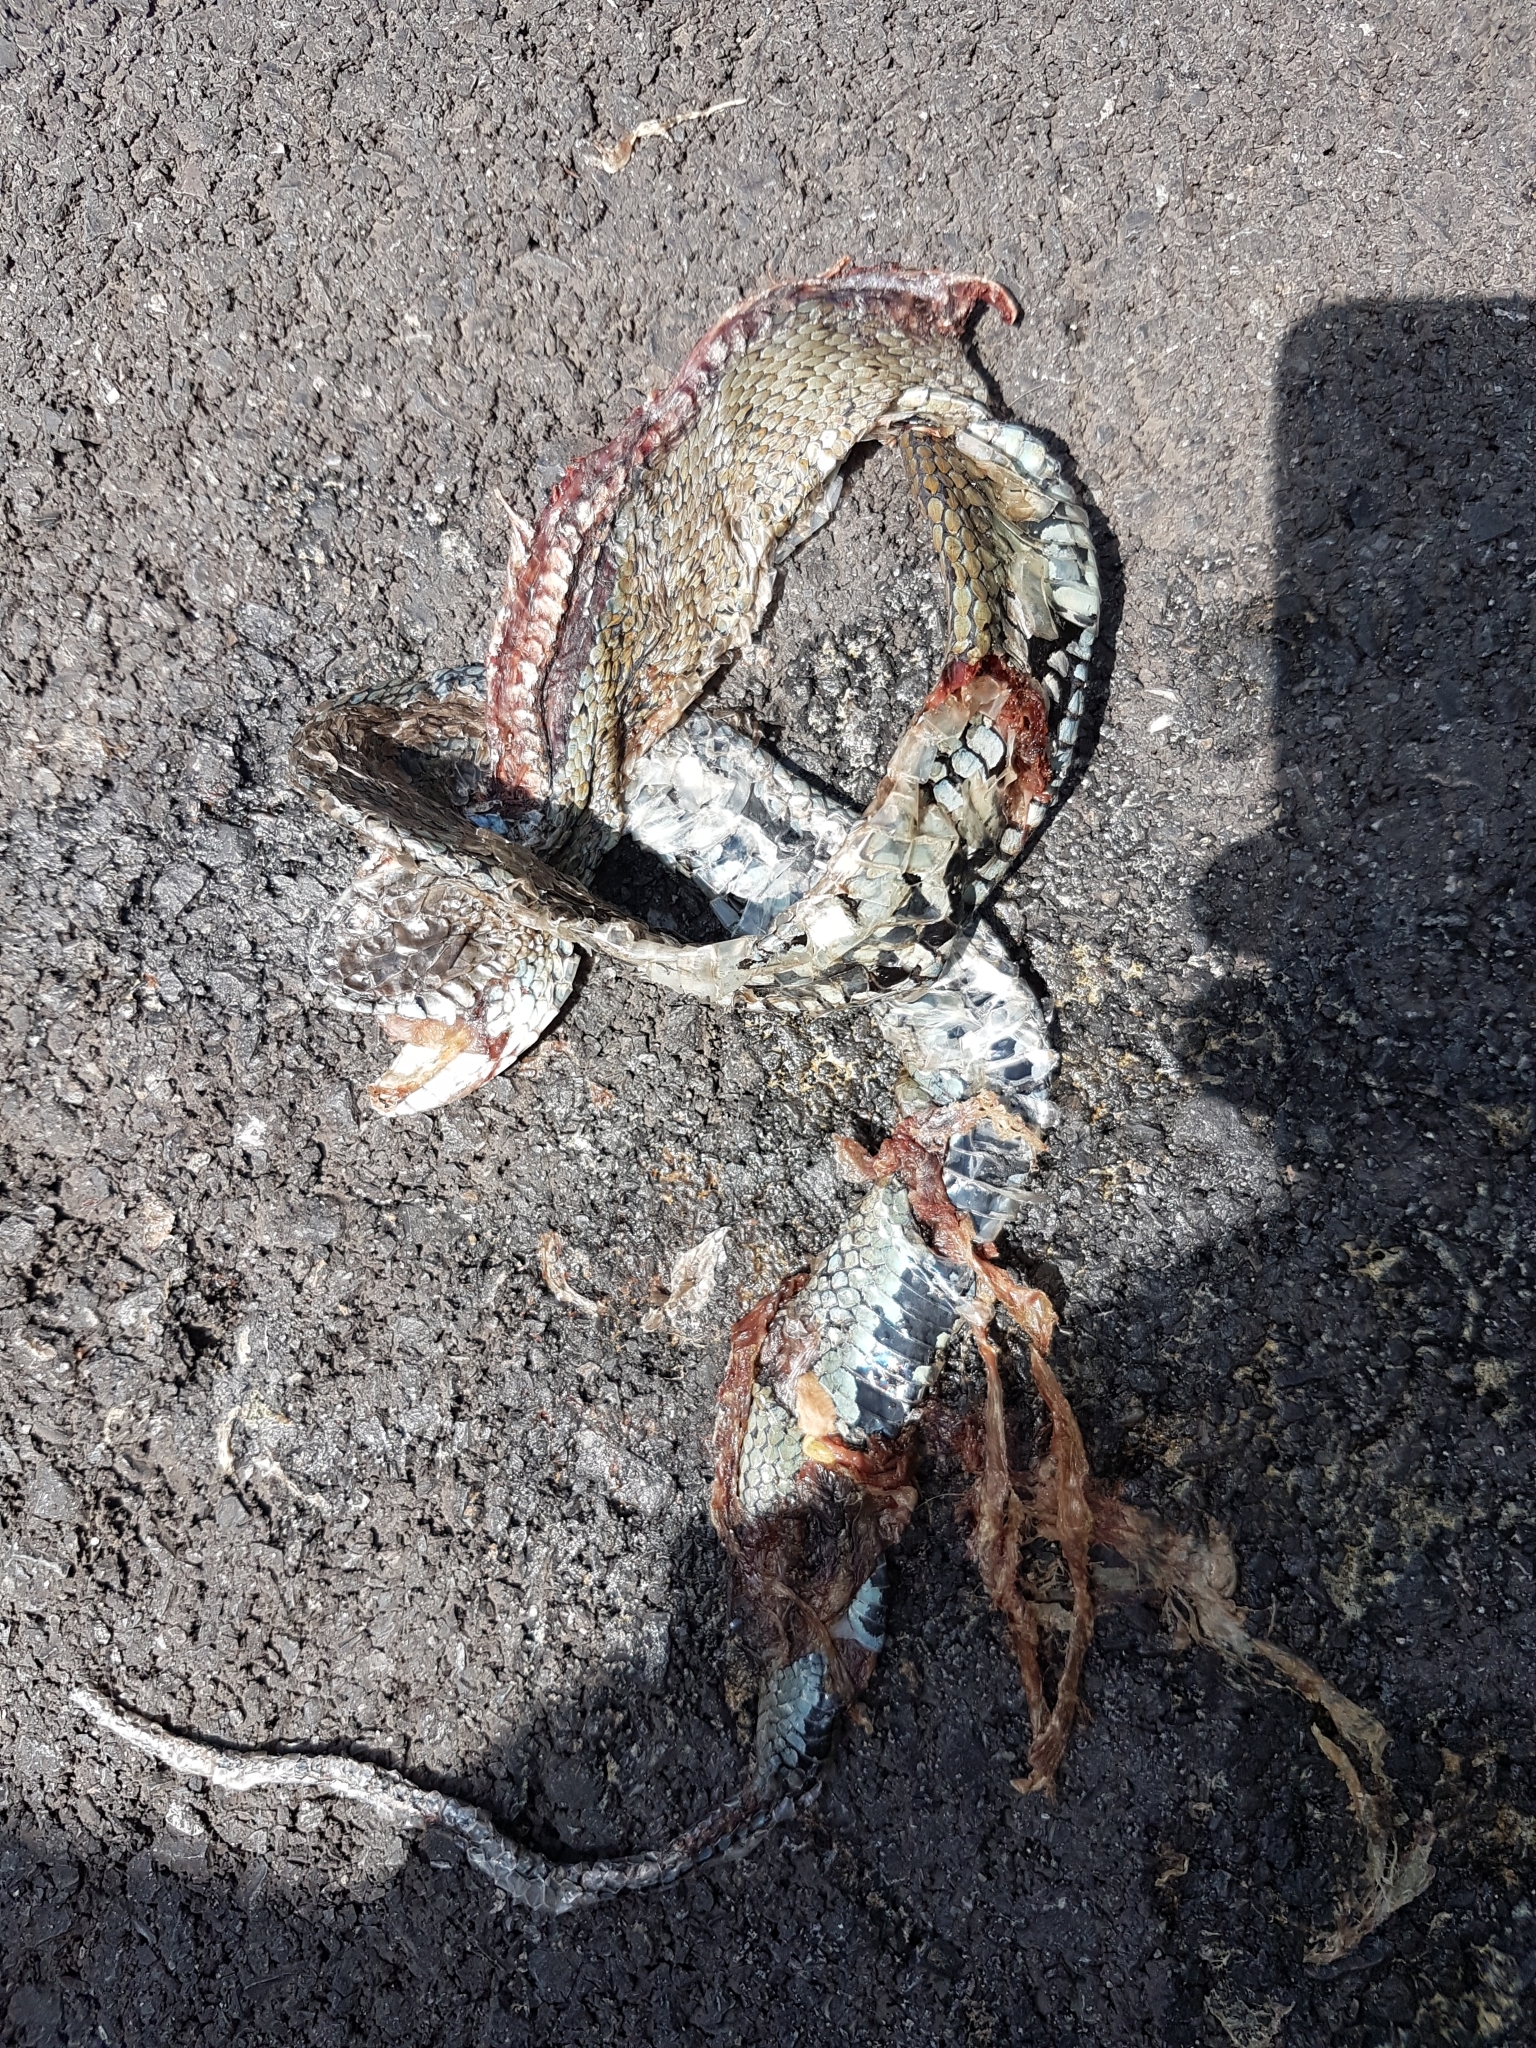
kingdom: Animalia
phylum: Chordata
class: Squamata
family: Colubridae
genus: Natrix
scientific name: Natrix astreptophora
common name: Red-eyed grass snake
